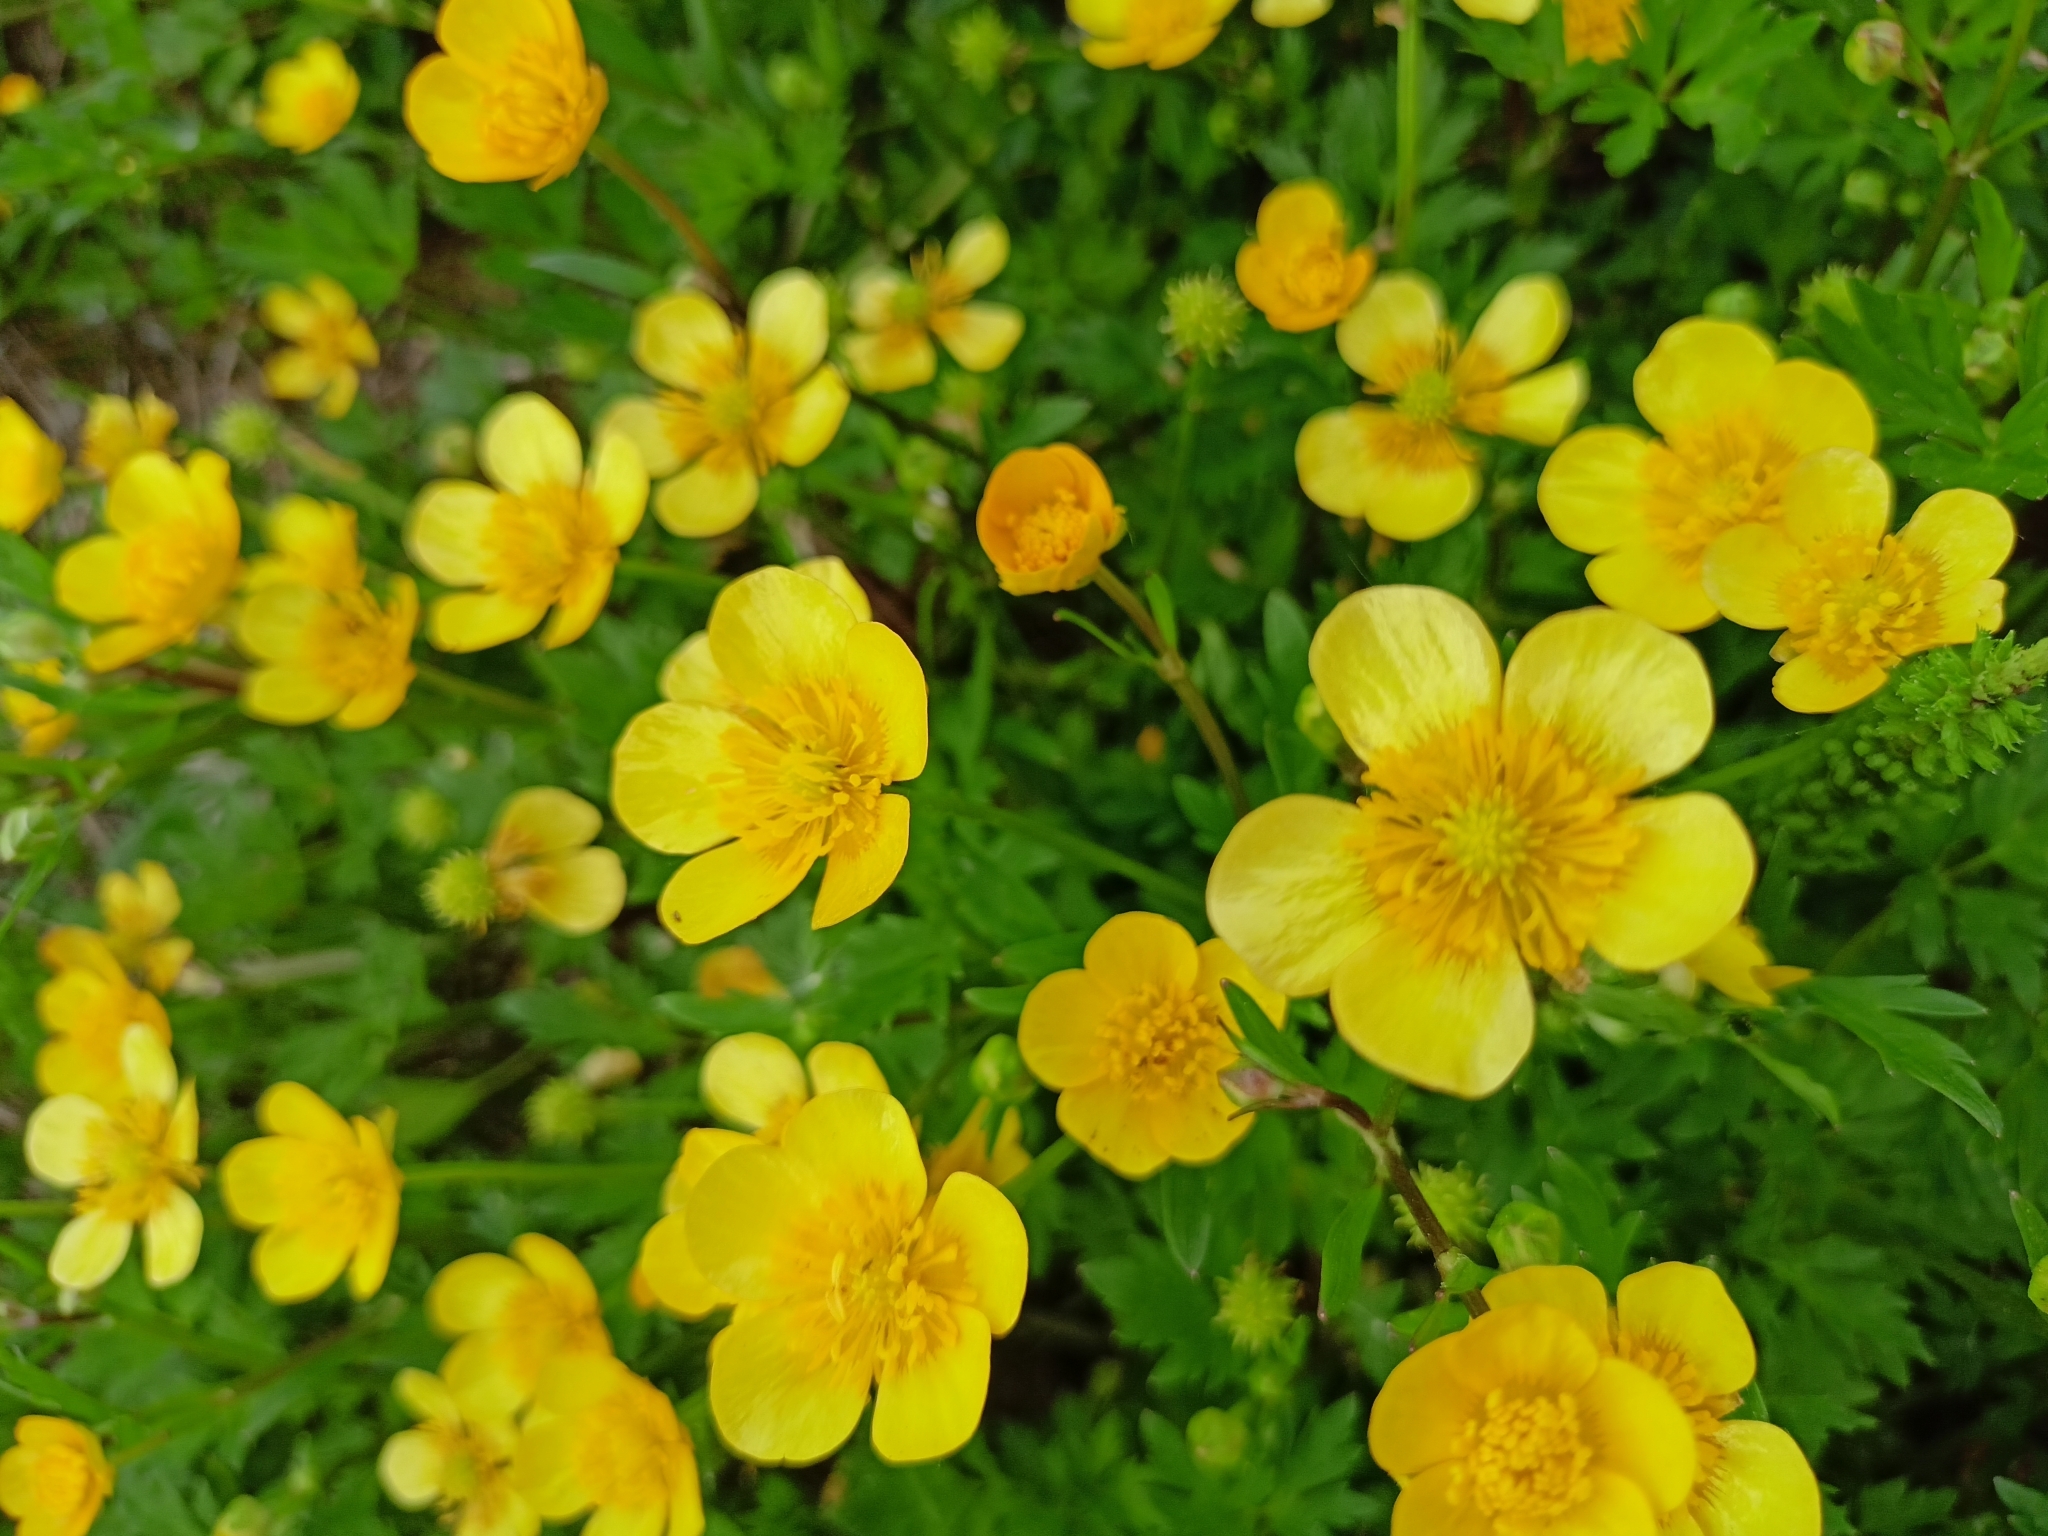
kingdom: Plantae
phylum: Tracheophyta
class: Magnoliopsida
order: Ranunculales
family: Ranunculaceae
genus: Ranunculus
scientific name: Ranunculus repens
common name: Creeping buttercup
